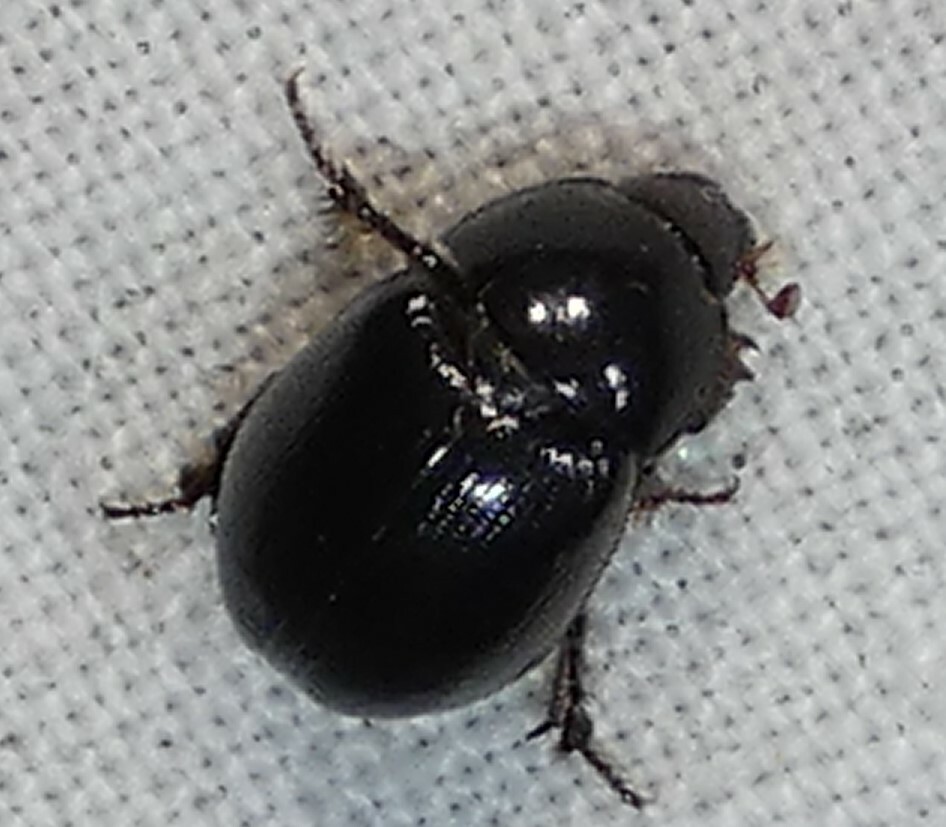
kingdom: Animalia
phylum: Arthropoda
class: Insecta
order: Coleoptera
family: Hybosoridae
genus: Hybosorus
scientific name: Hybosorus illigeri
